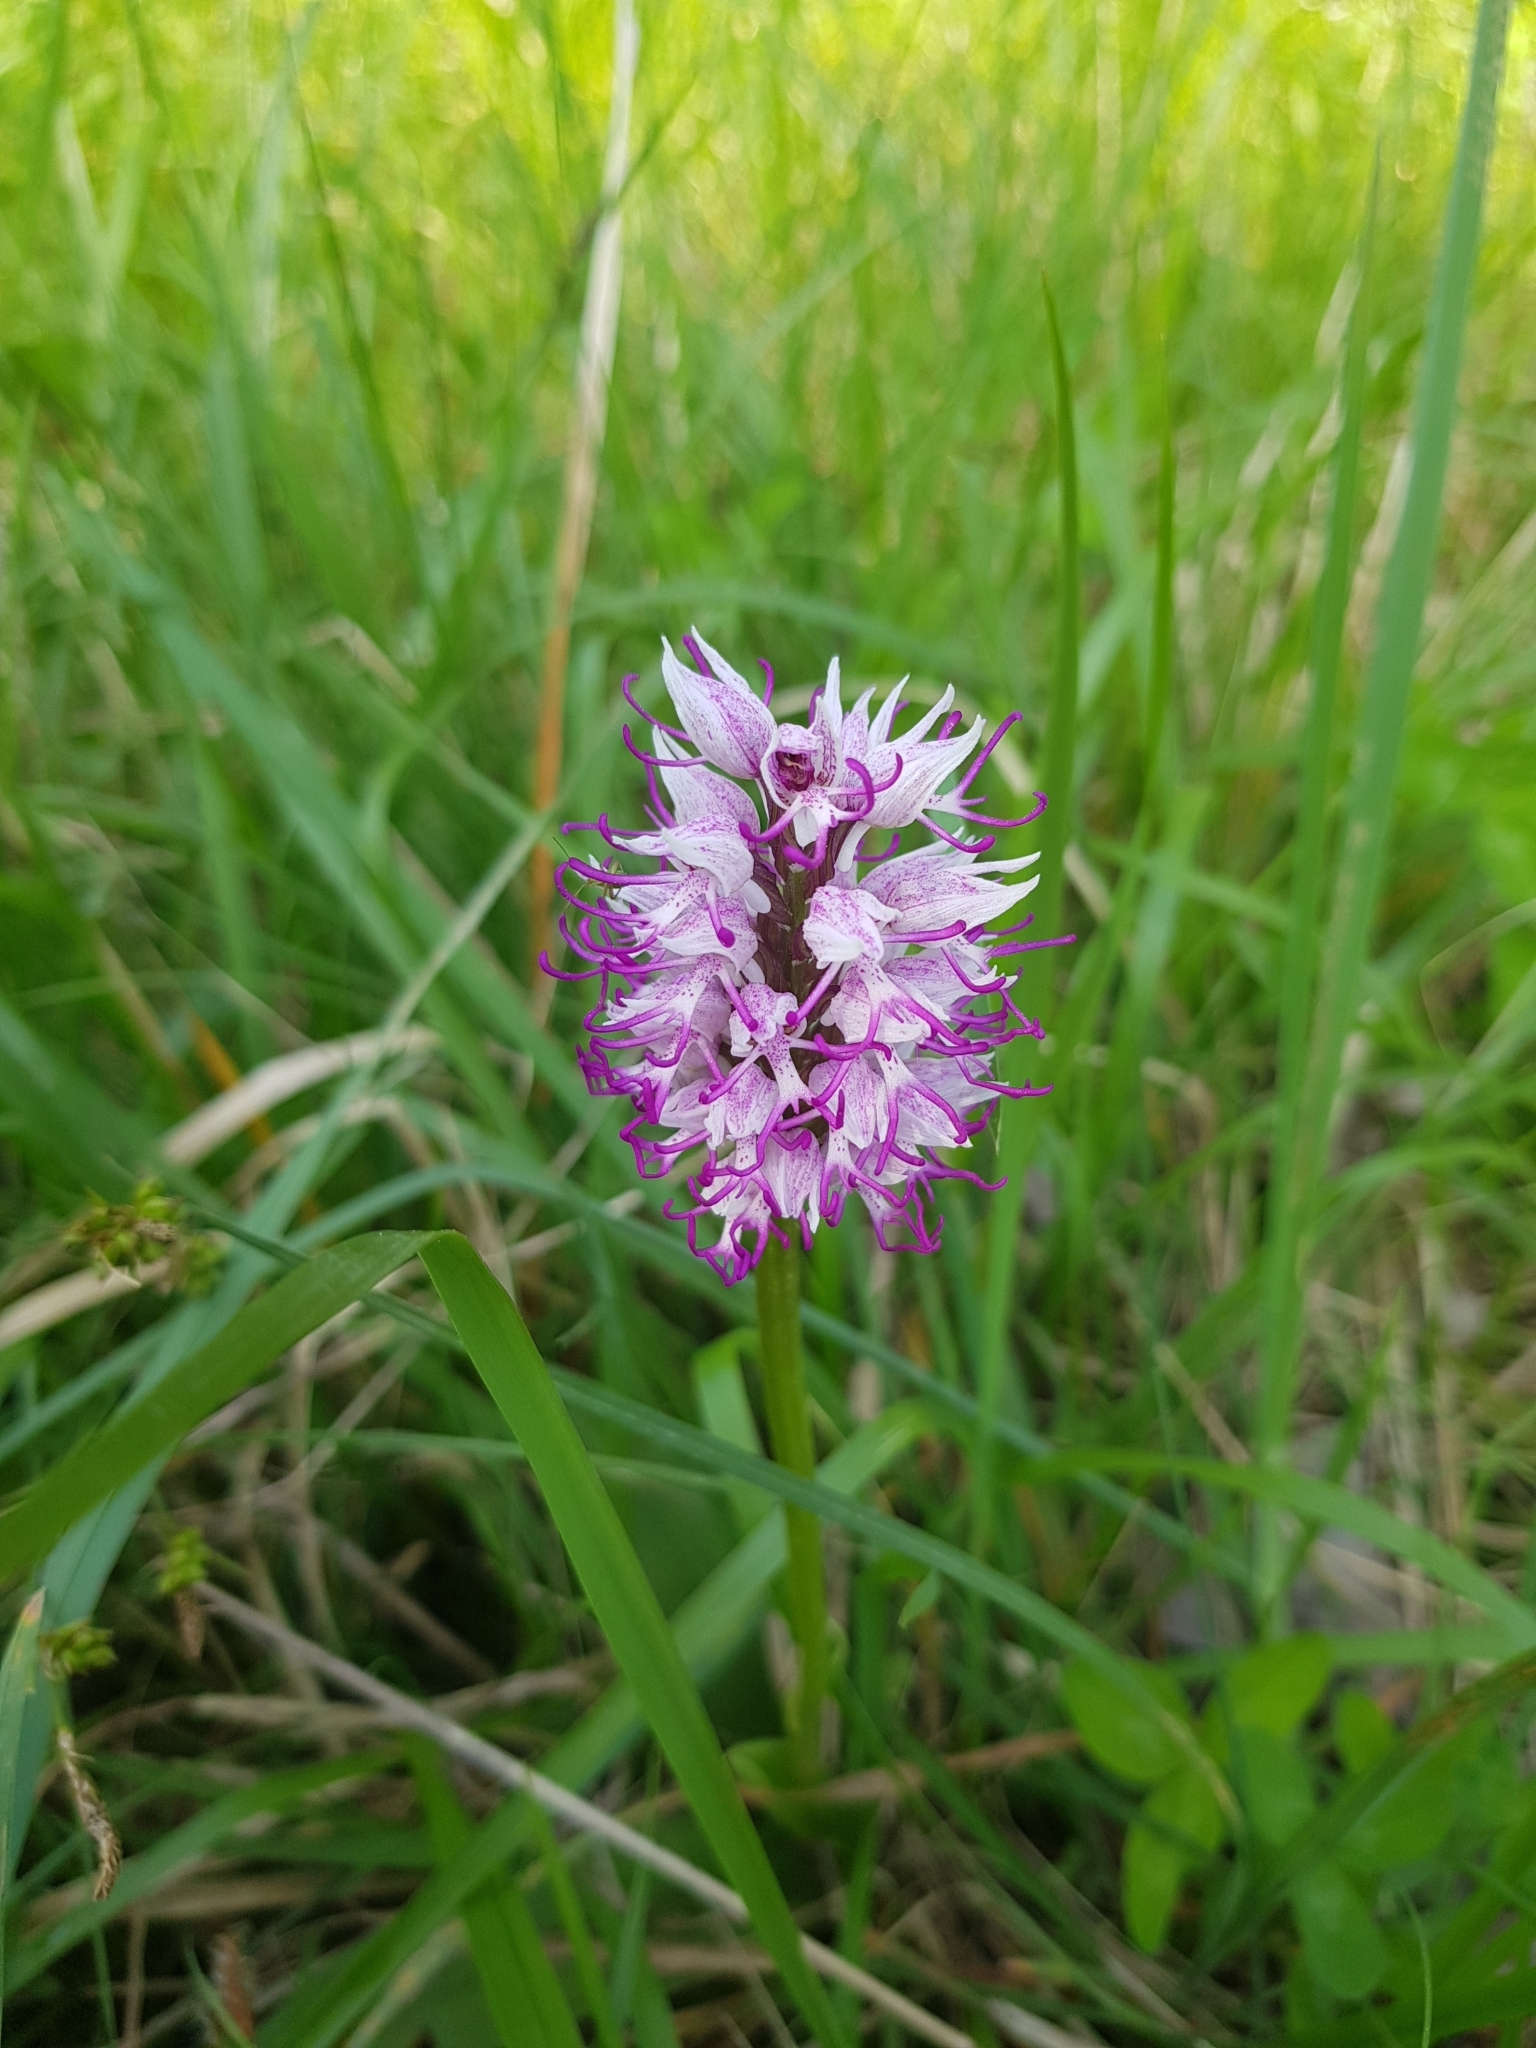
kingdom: Plantae
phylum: Tracheophyta
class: Liliopsida
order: Asparagales
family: Orchidaceae
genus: Orchis
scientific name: Orchis simia
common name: Monkey orchid
